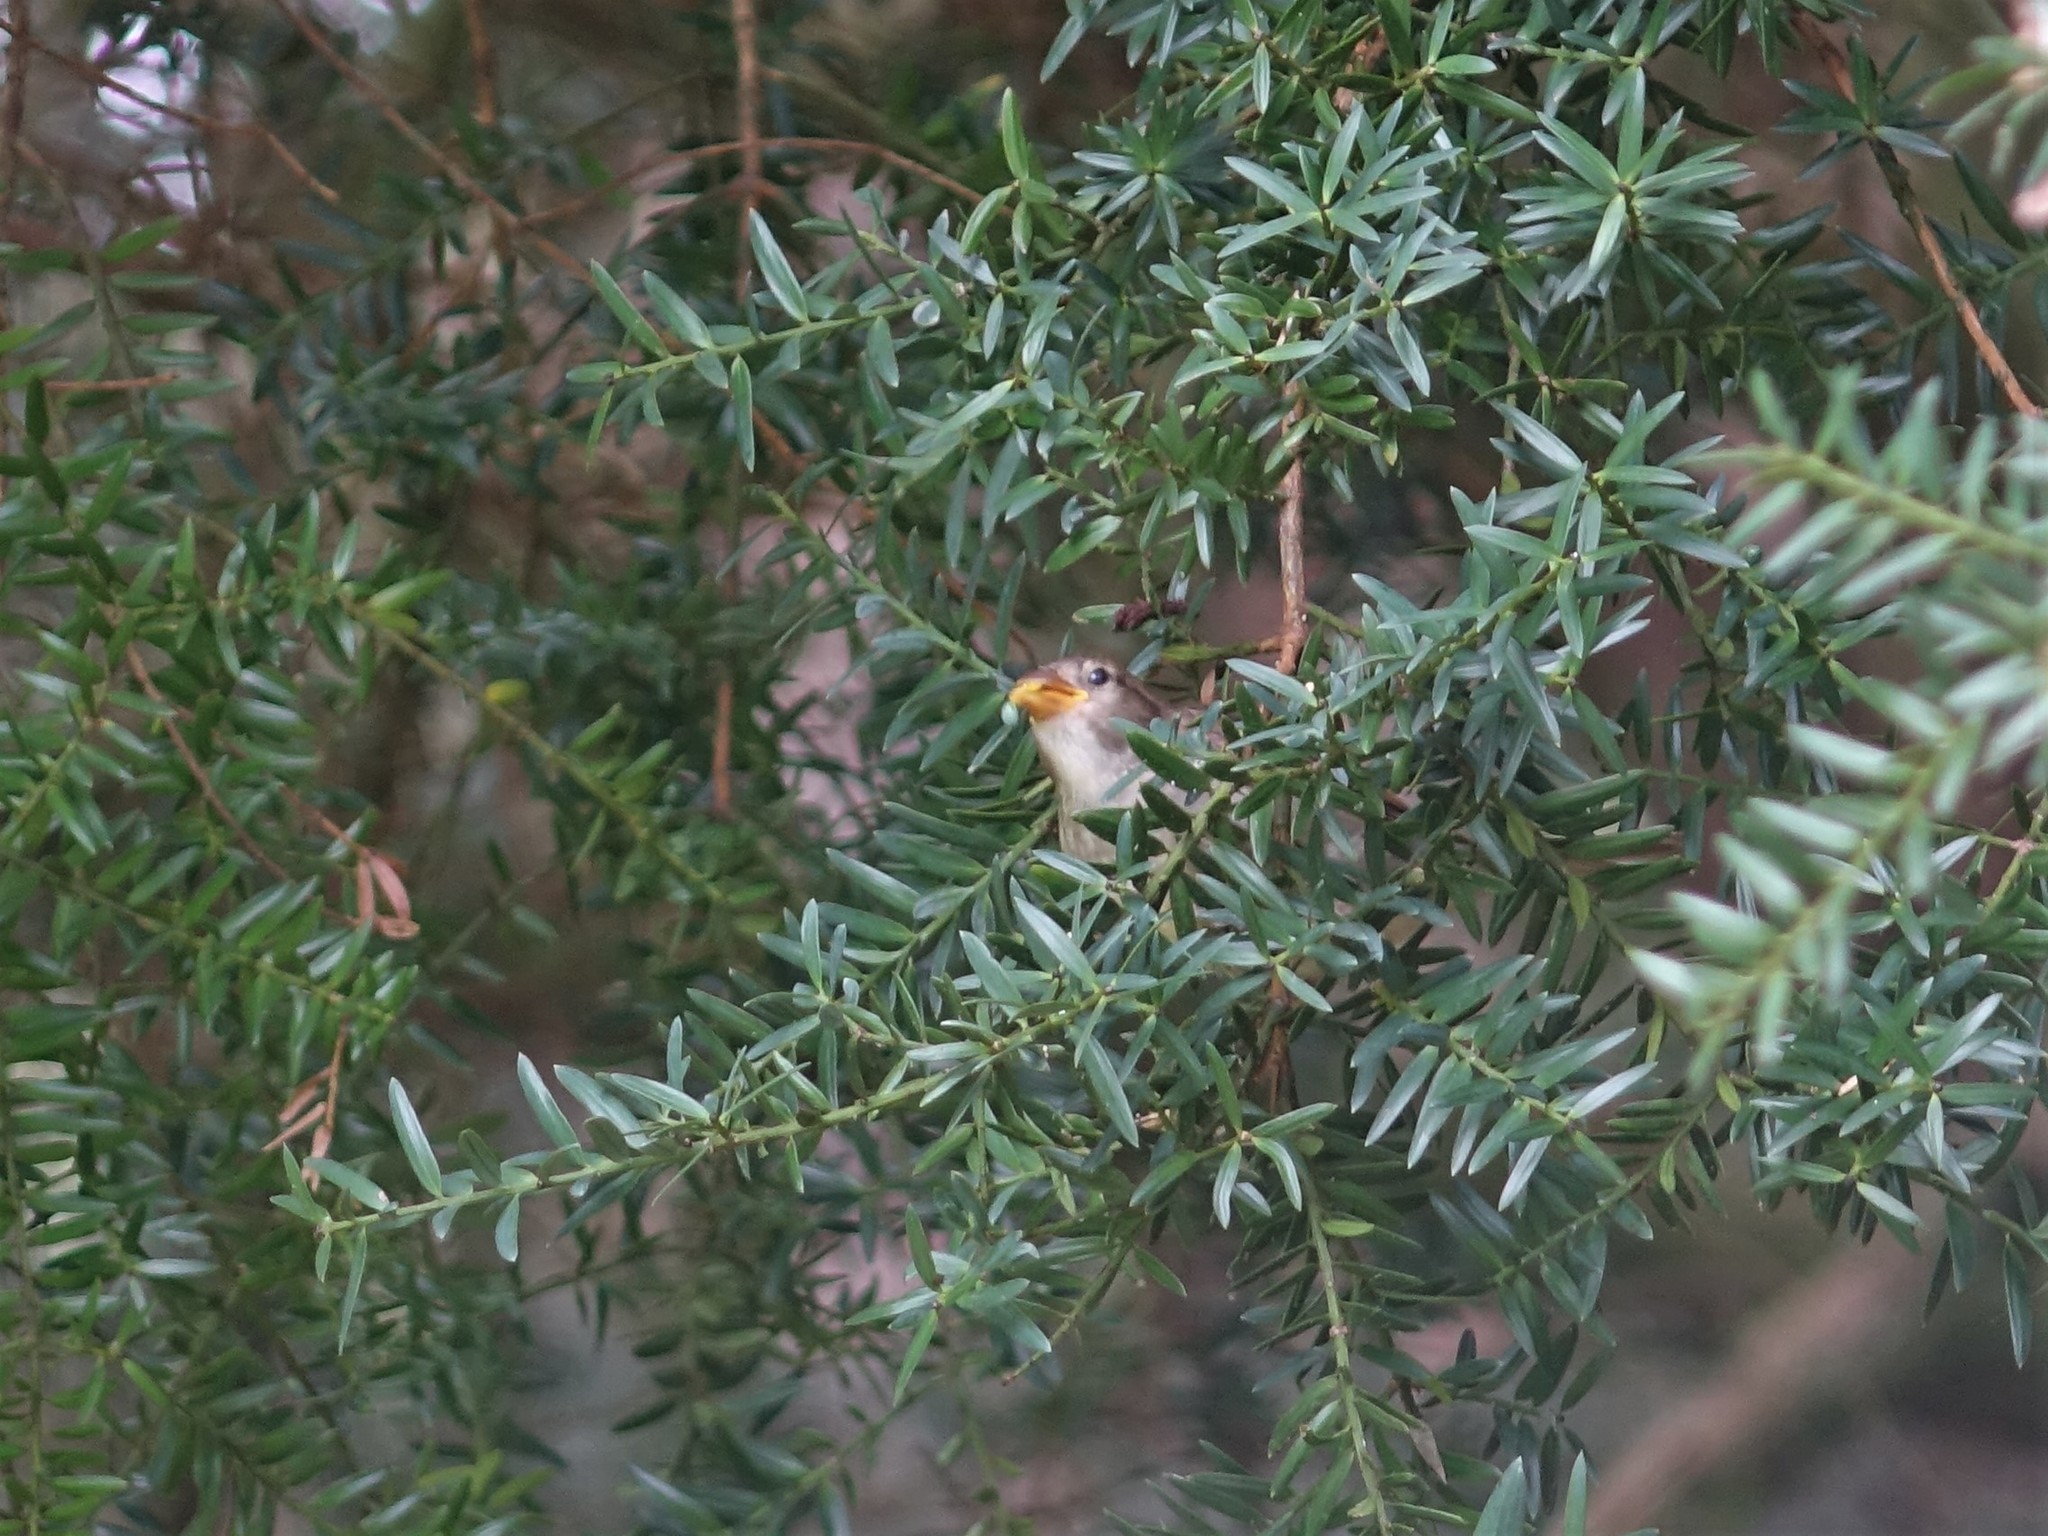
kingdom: Animalia
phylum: Chordata
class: Aves
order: Passeriformes
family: Passeridae
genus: Passer
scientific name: Passer domesticus
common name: House sparrow
